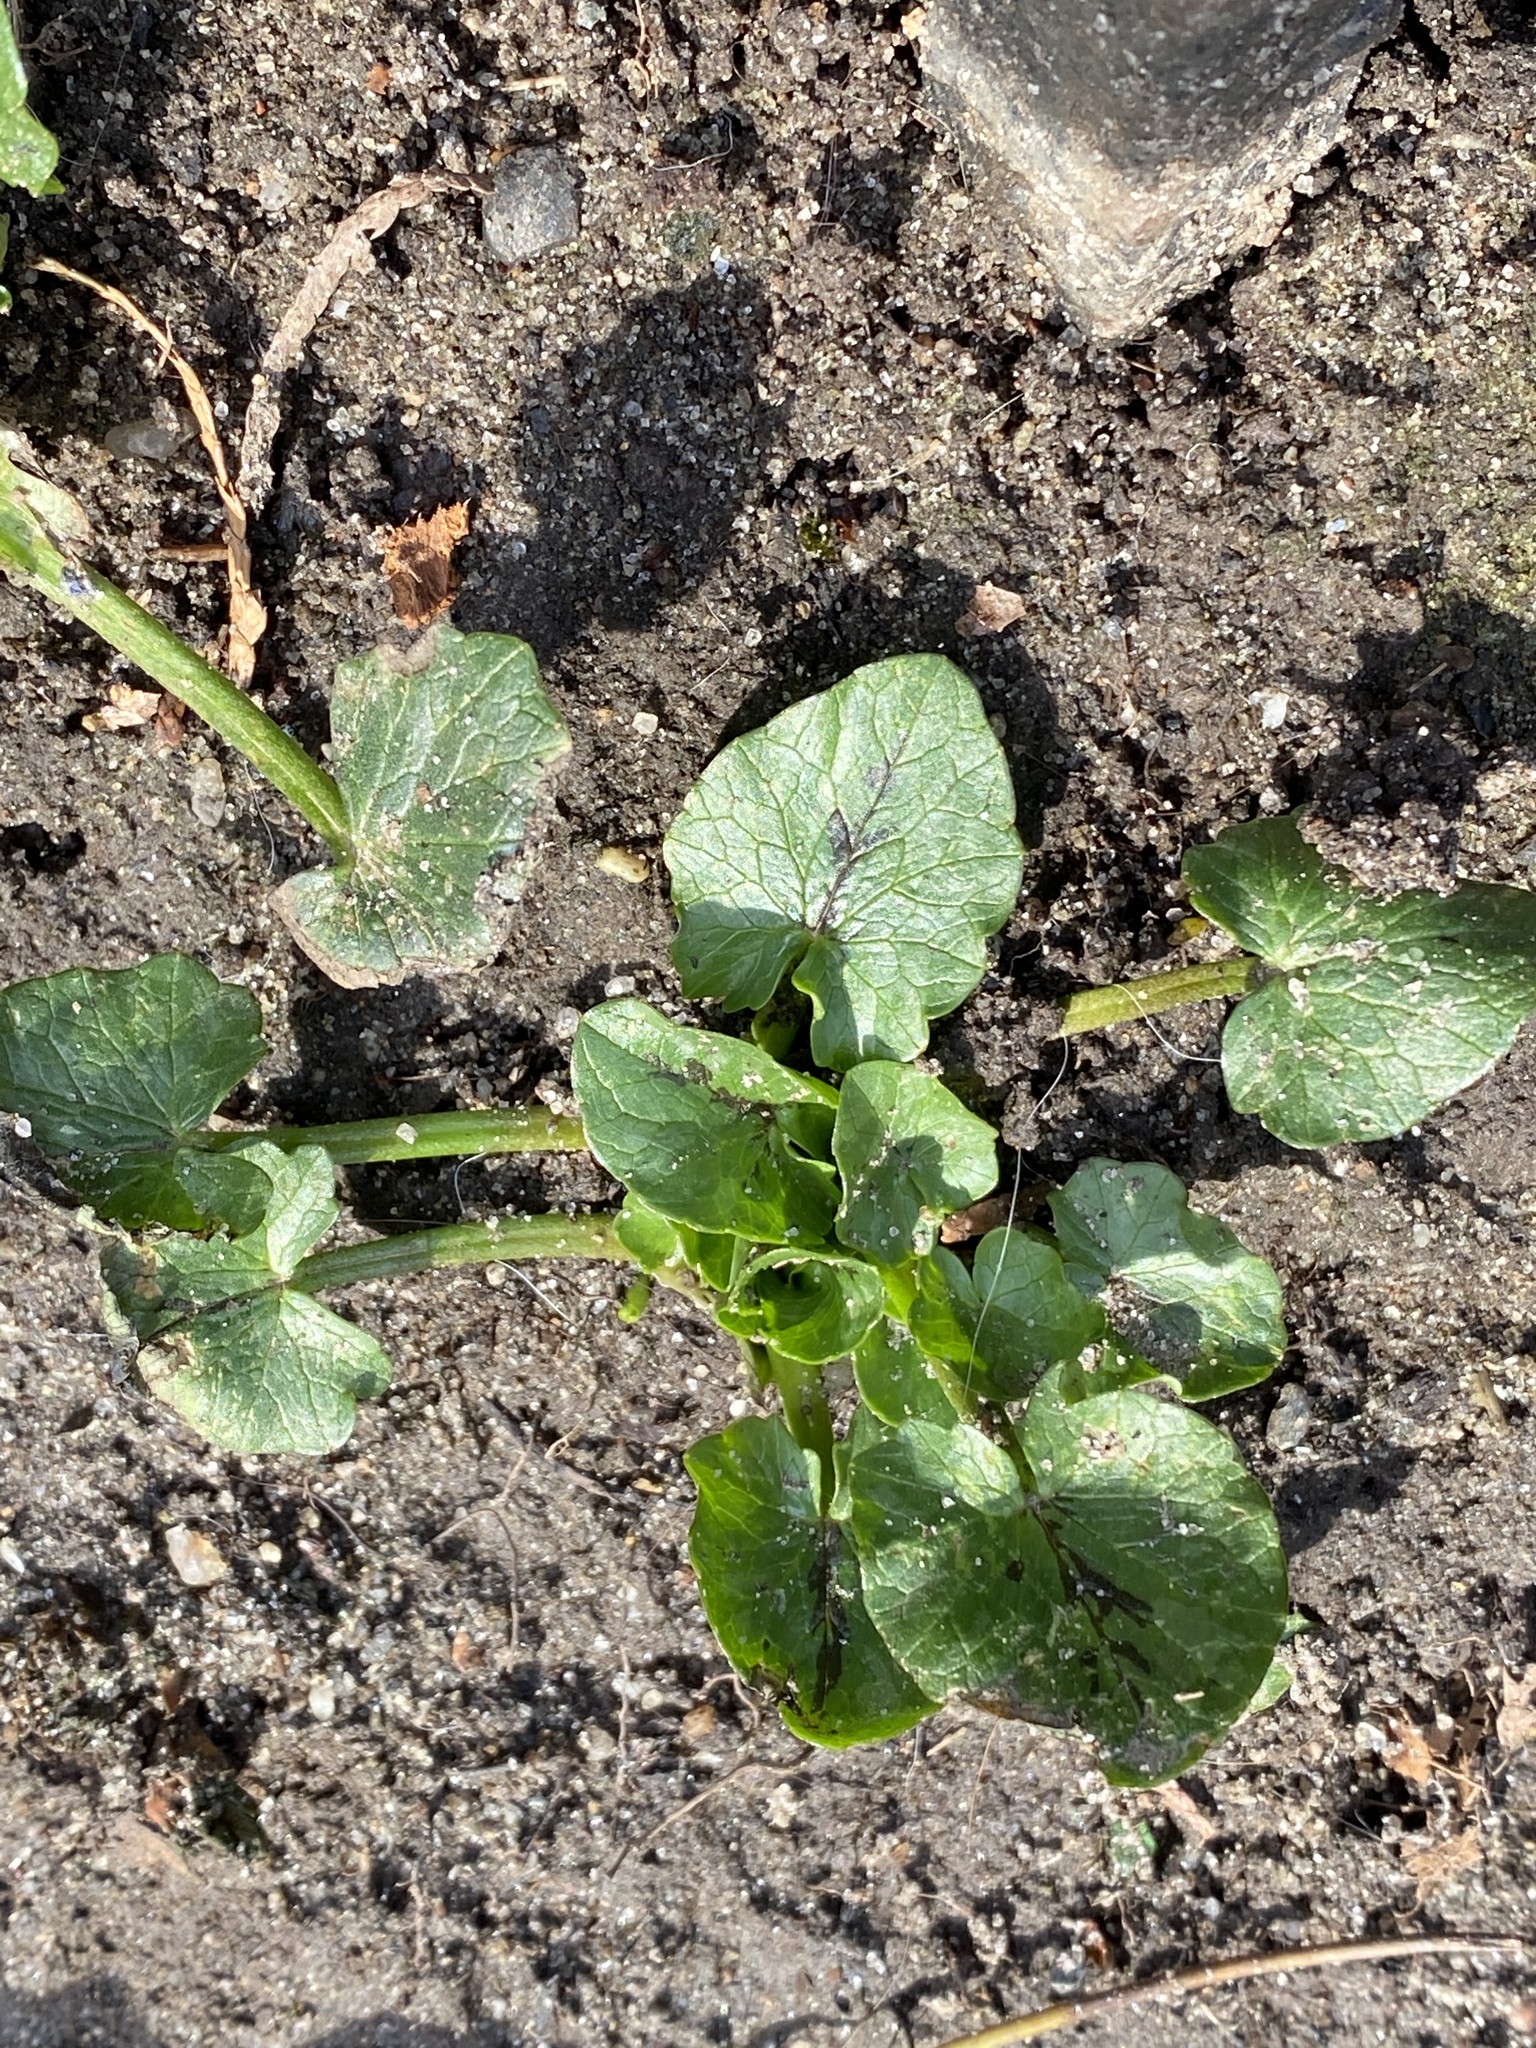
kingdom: Plantae
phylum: Tracheophyta
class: Magnoliopsida
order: Ranunculales
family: Ranunculaceae
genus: Ficaria
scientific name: Ficaria verna
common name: Lesser celandine
